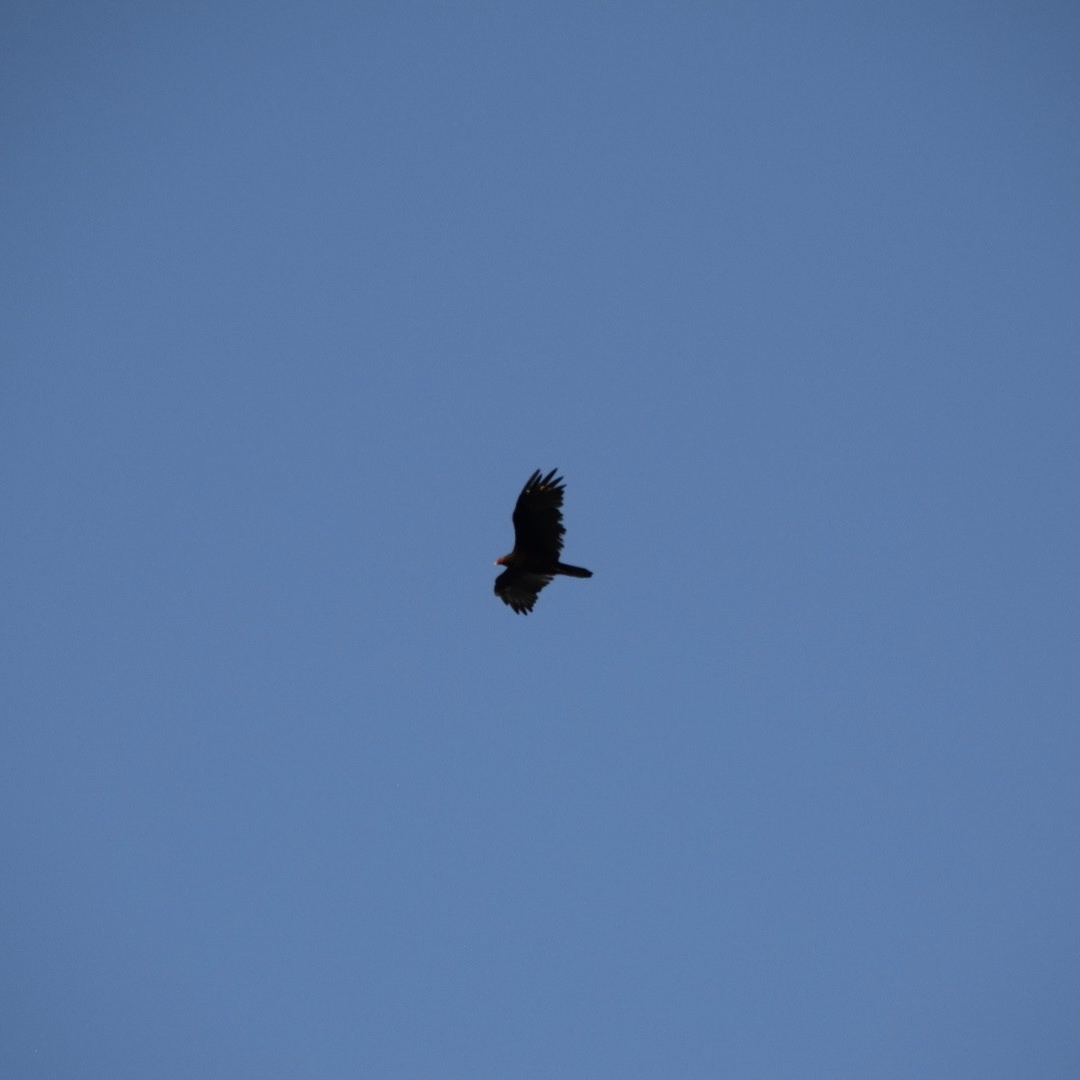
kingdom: Animalia
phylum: Chordata
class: Aves
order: Accipitriformes
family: Cathartidae
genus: Cathartes
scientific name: Cathartes aura
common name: Turkey vulture
